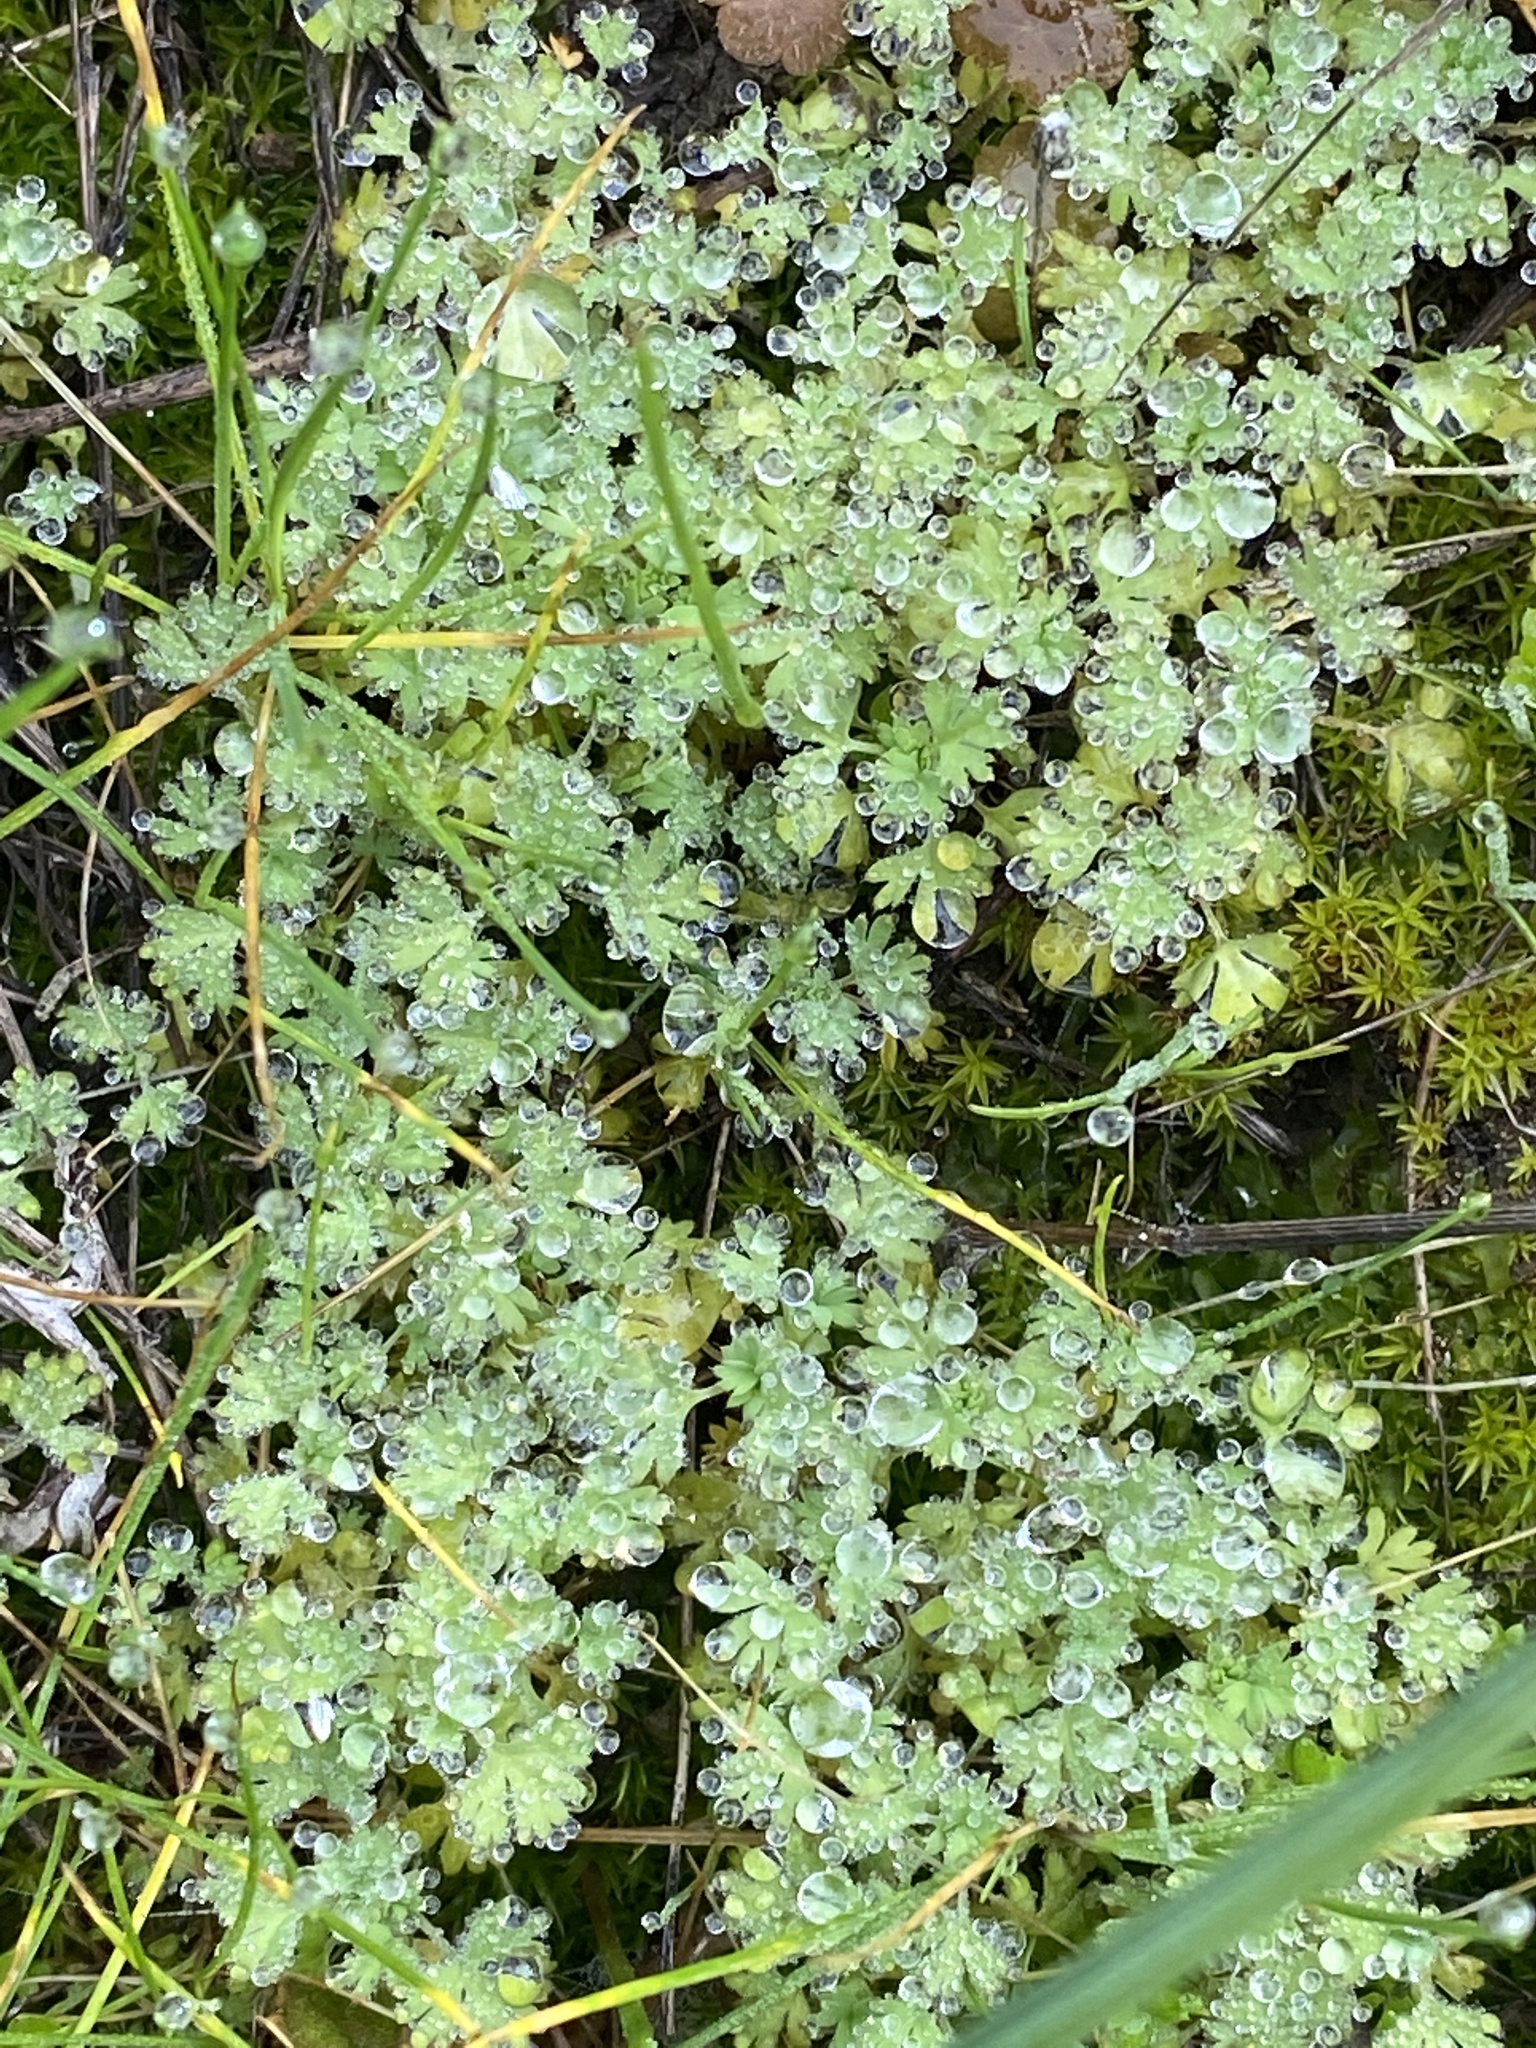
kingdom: Plantae
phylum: Tracheophyta
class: Magnoliopsida
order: Rosales
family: Rosaceae
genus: Aphanes
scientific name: Aphanes arvensis
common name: Parsley-piert
